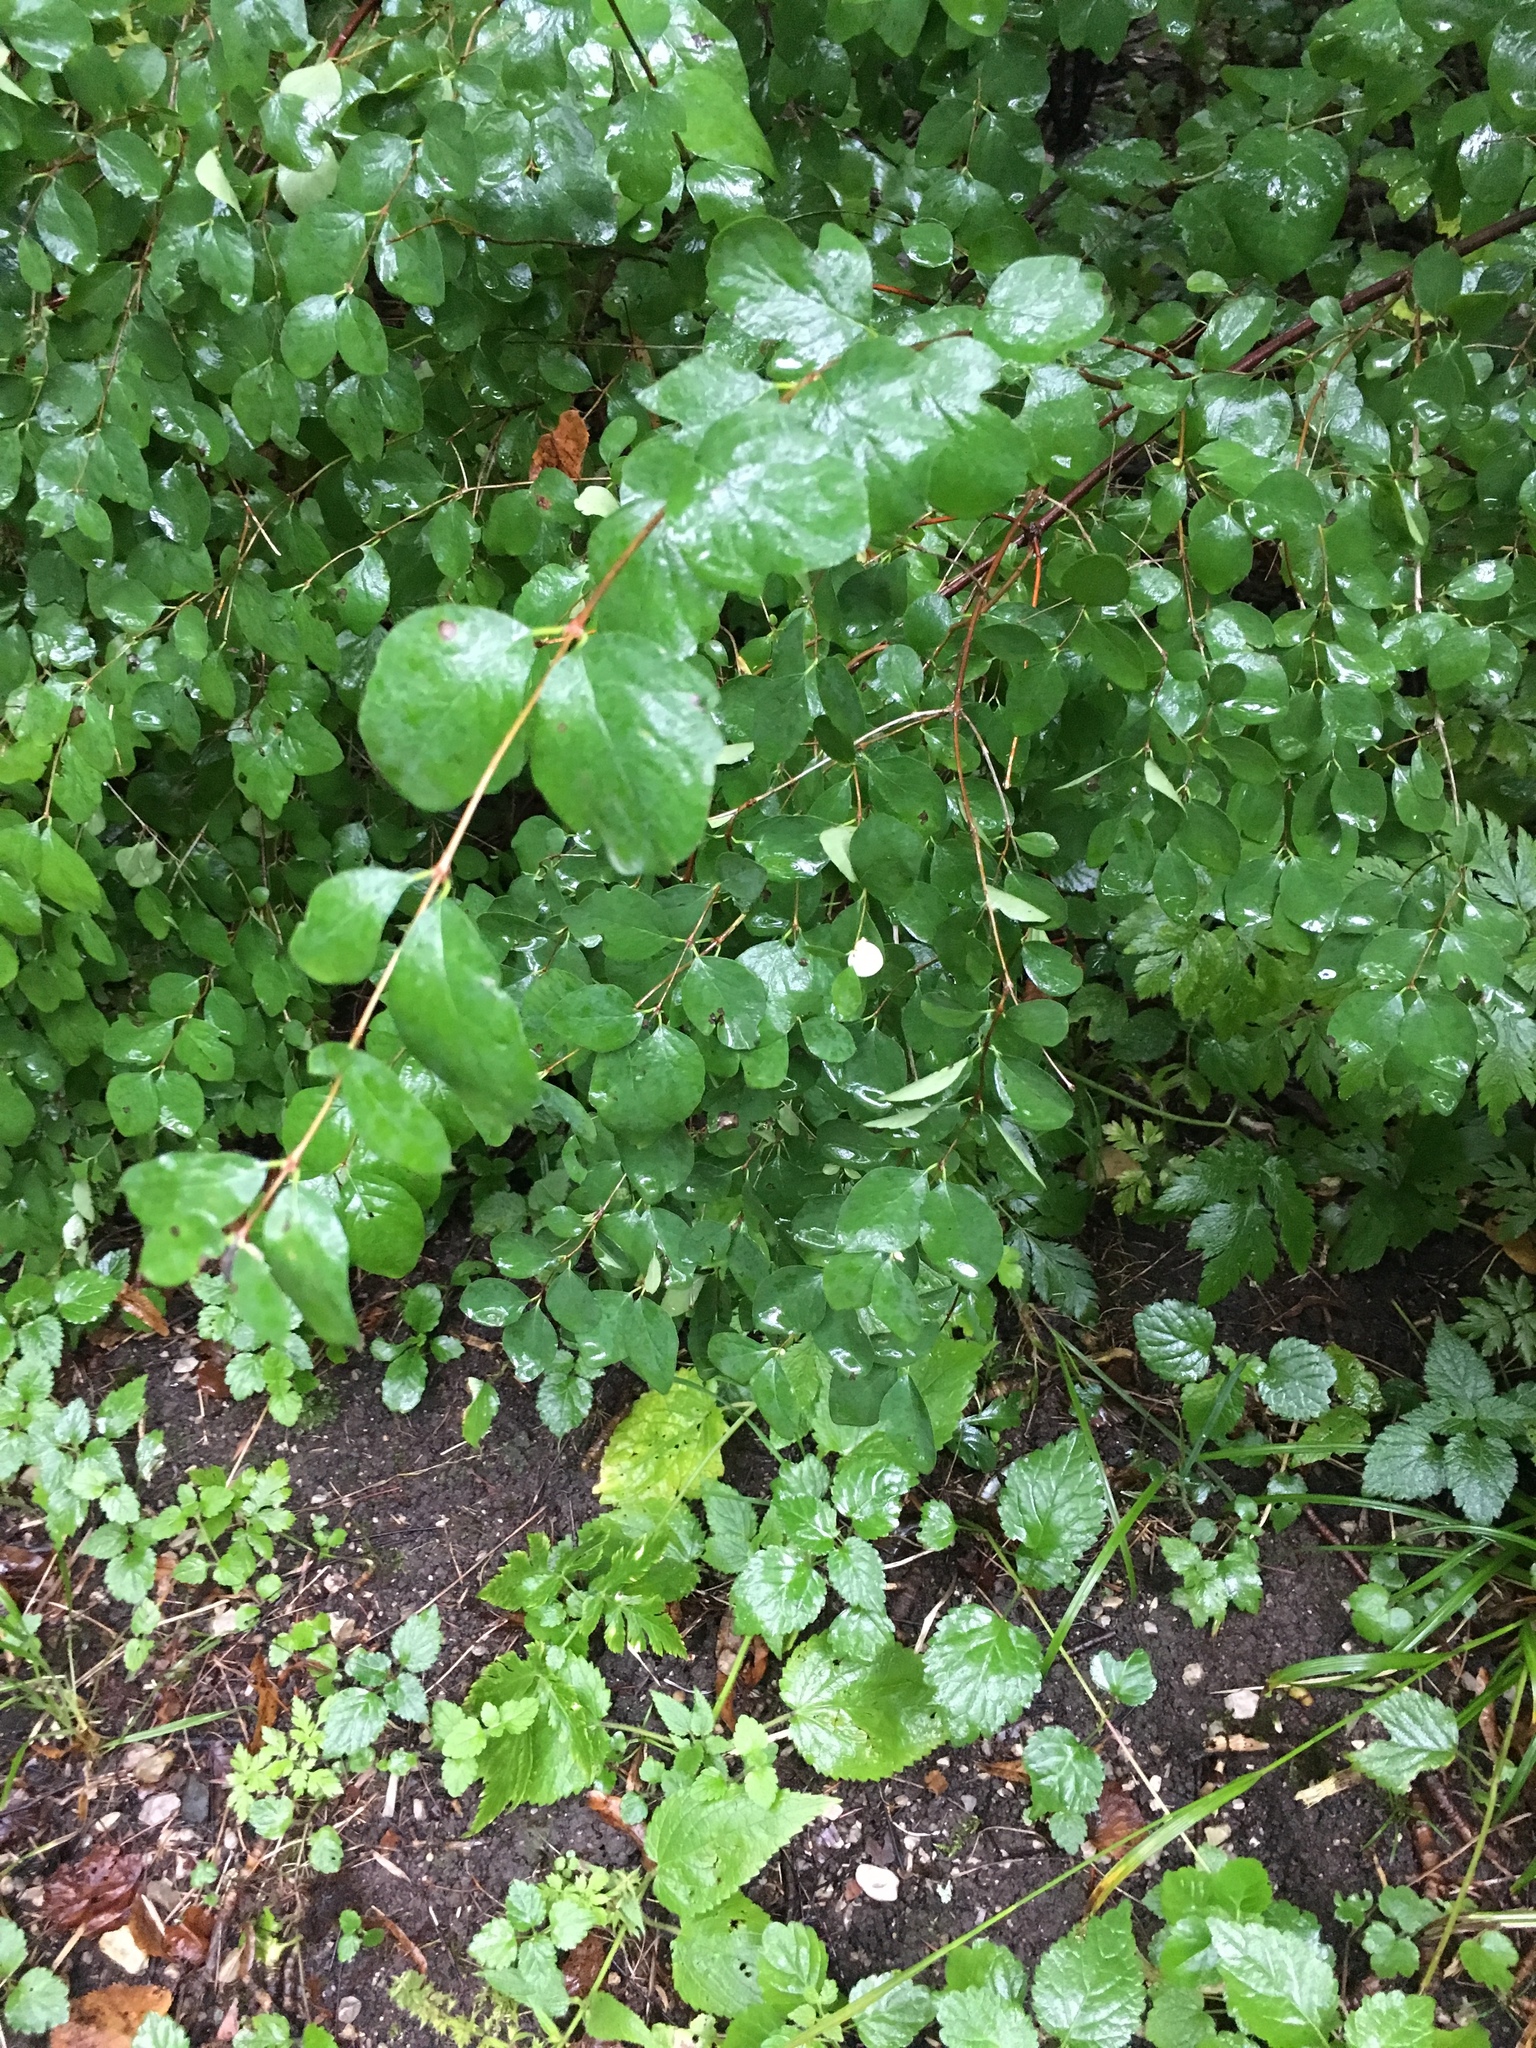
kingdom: Plantae
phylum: Tracheophyta
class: Magnoliopsida
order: Fagales
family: Betulaceae
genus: Corylus
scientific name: Corylus avellana
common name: European hazel
